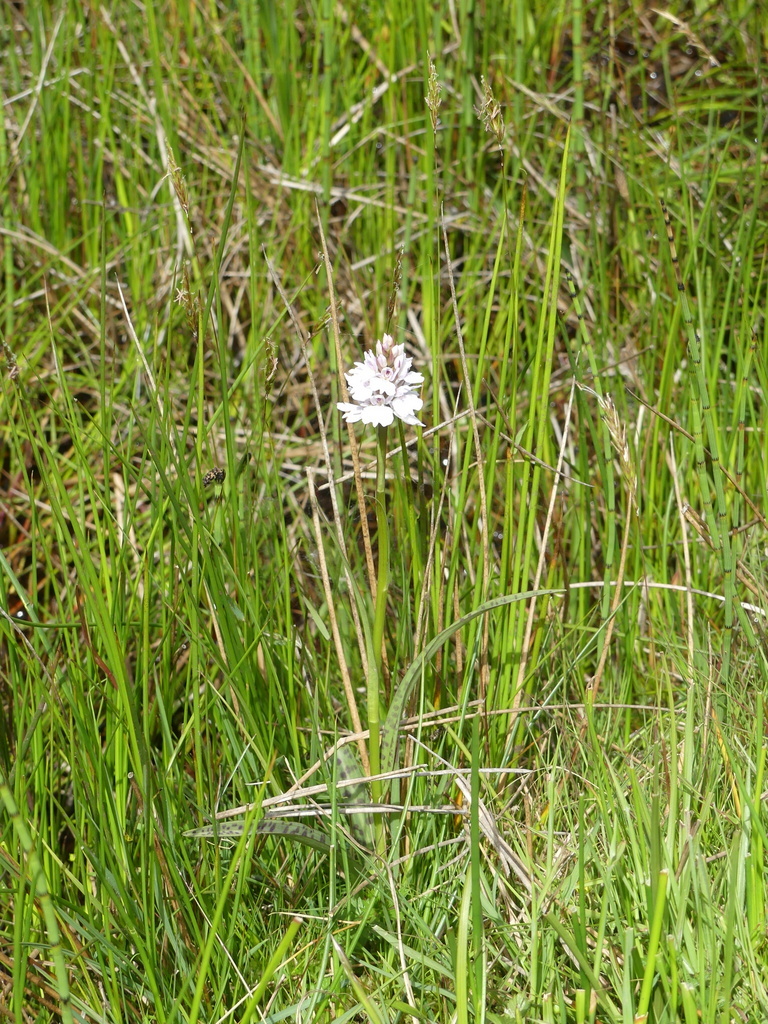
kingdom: Plantae
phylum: Tracheophyta
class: Liliopsida
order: Asparagales
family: Orchidaceae
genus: Dactylorhiza
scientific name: Dactylorhiza maculata
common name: Heath spotted-orchid
